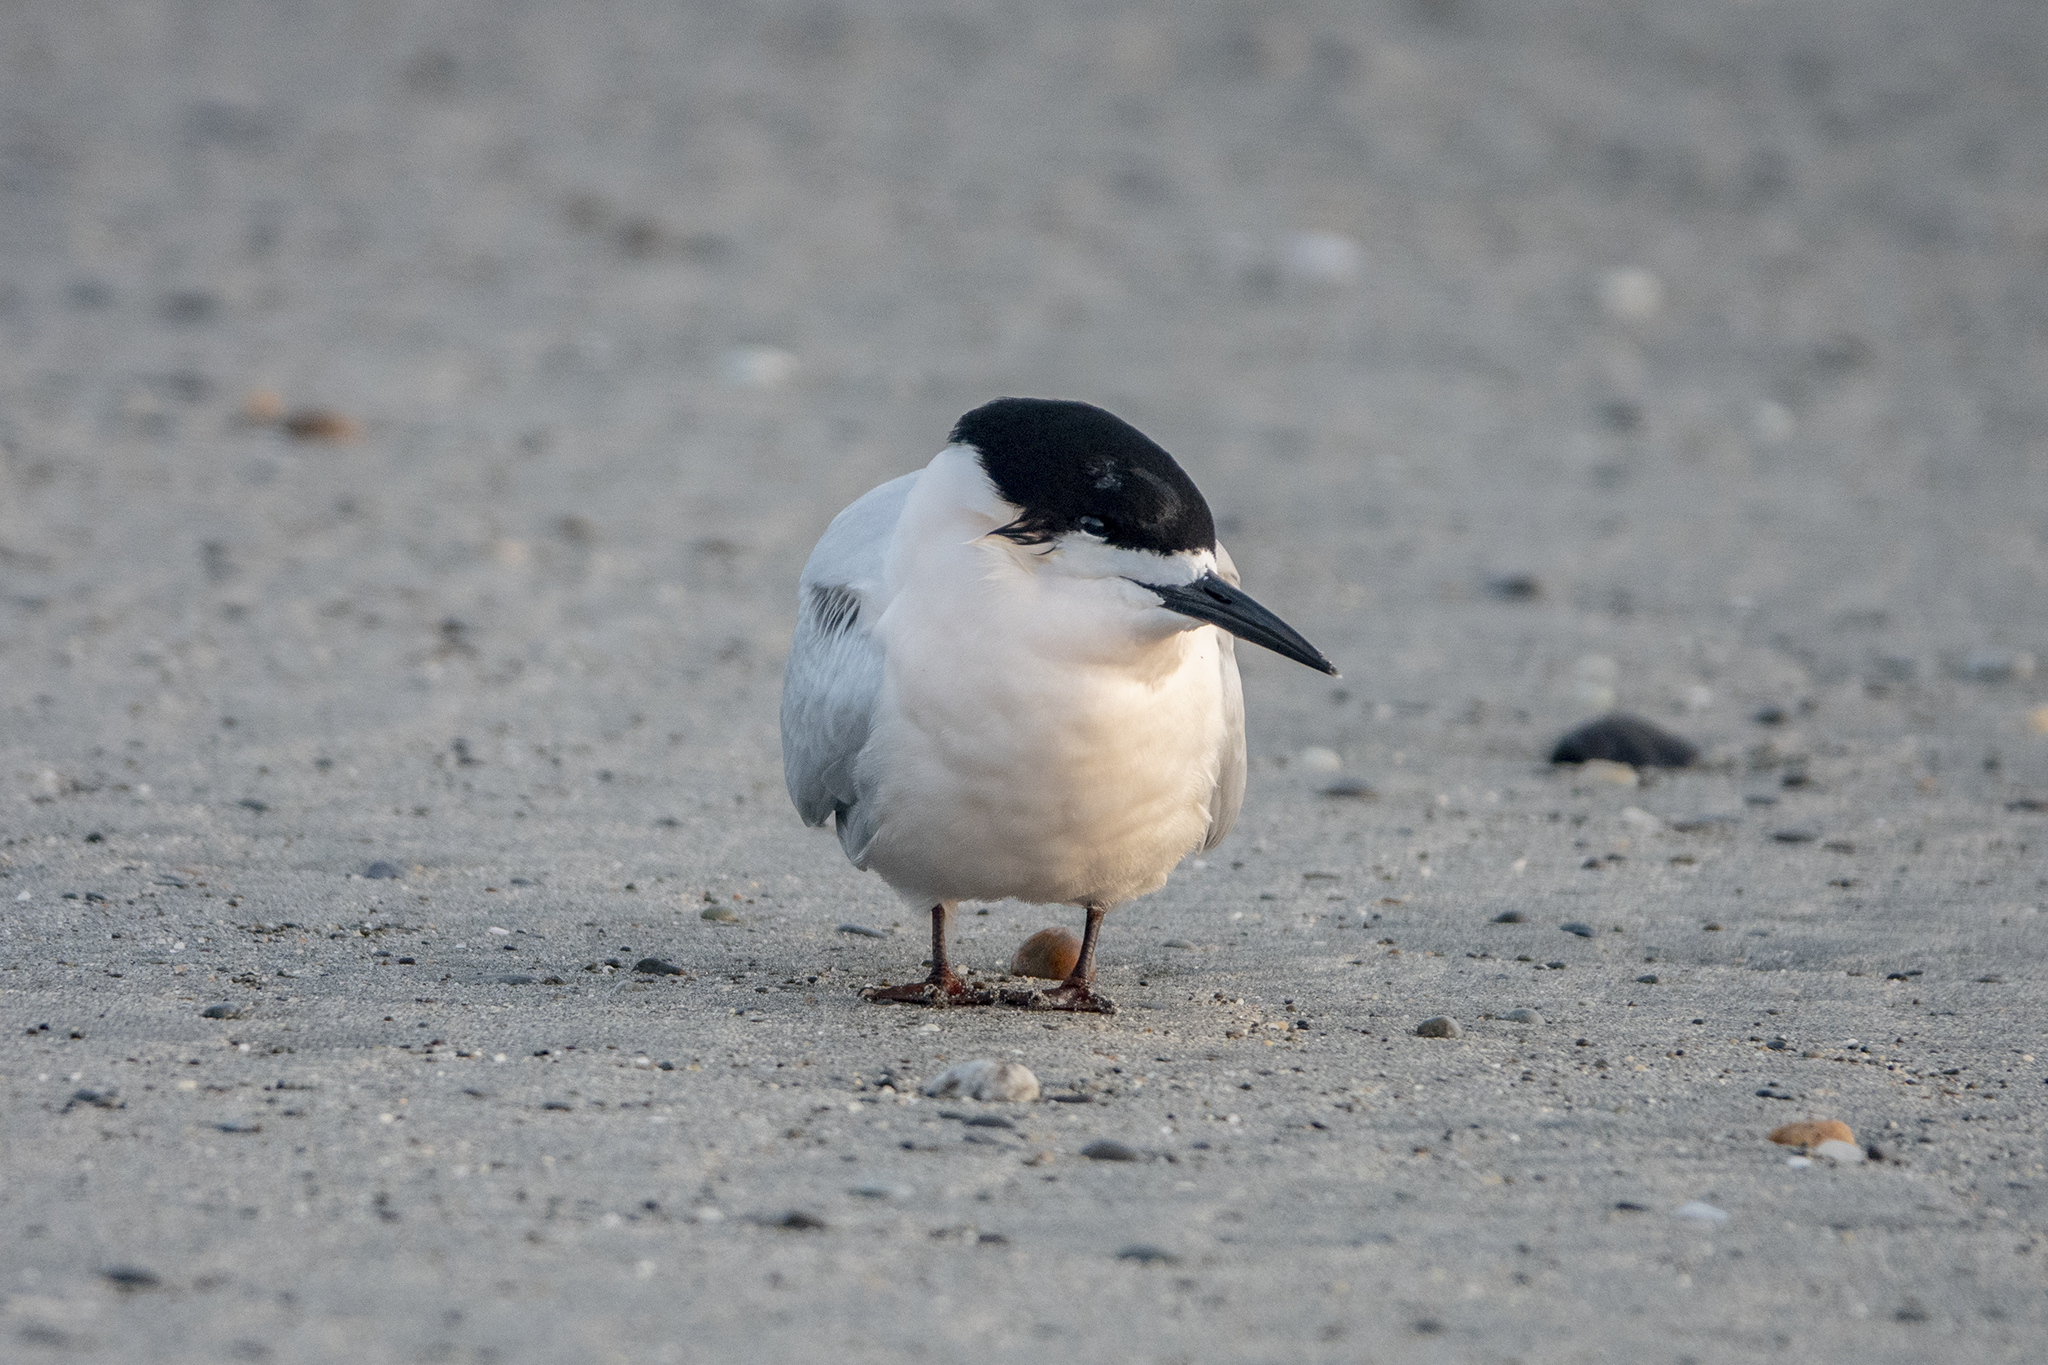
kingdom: Animalia
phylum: Chordata
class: Aves
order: Charadriiformes
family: Laridae
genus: Sterna
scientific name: Sterna striata
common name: White-fronted tern
